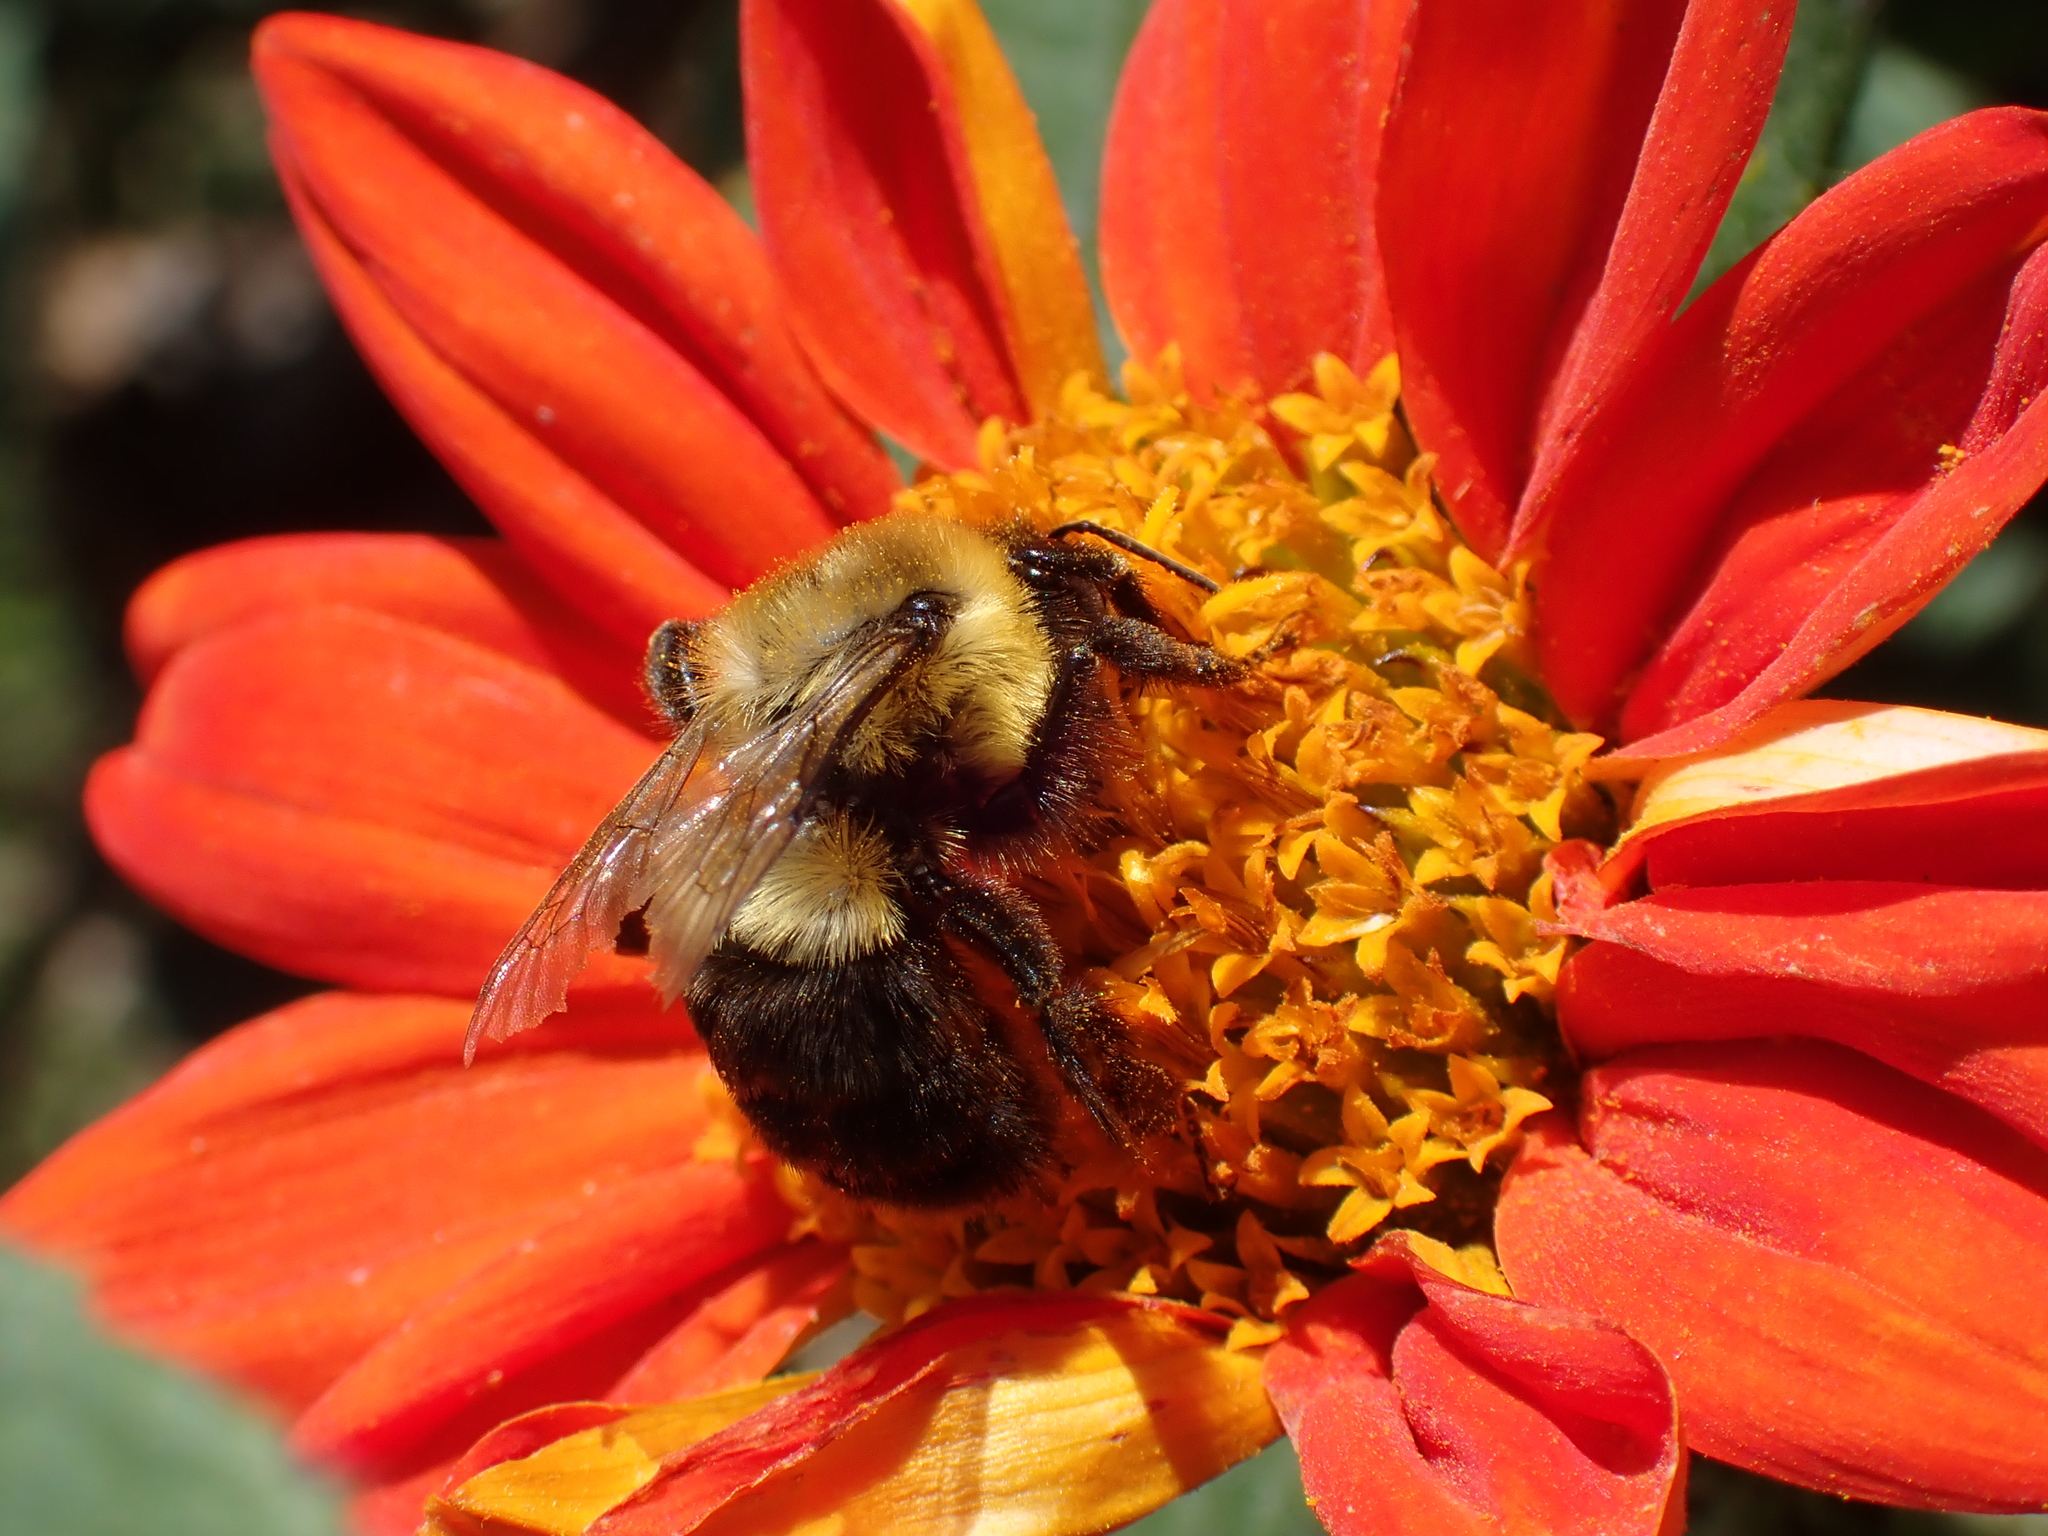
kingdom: Animalia
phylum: Arthropoda
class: Insecta
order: Hymenoptera
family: Apidae
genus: Bombus
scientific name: Bombus impatiens
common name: Common eastern bumble bee
